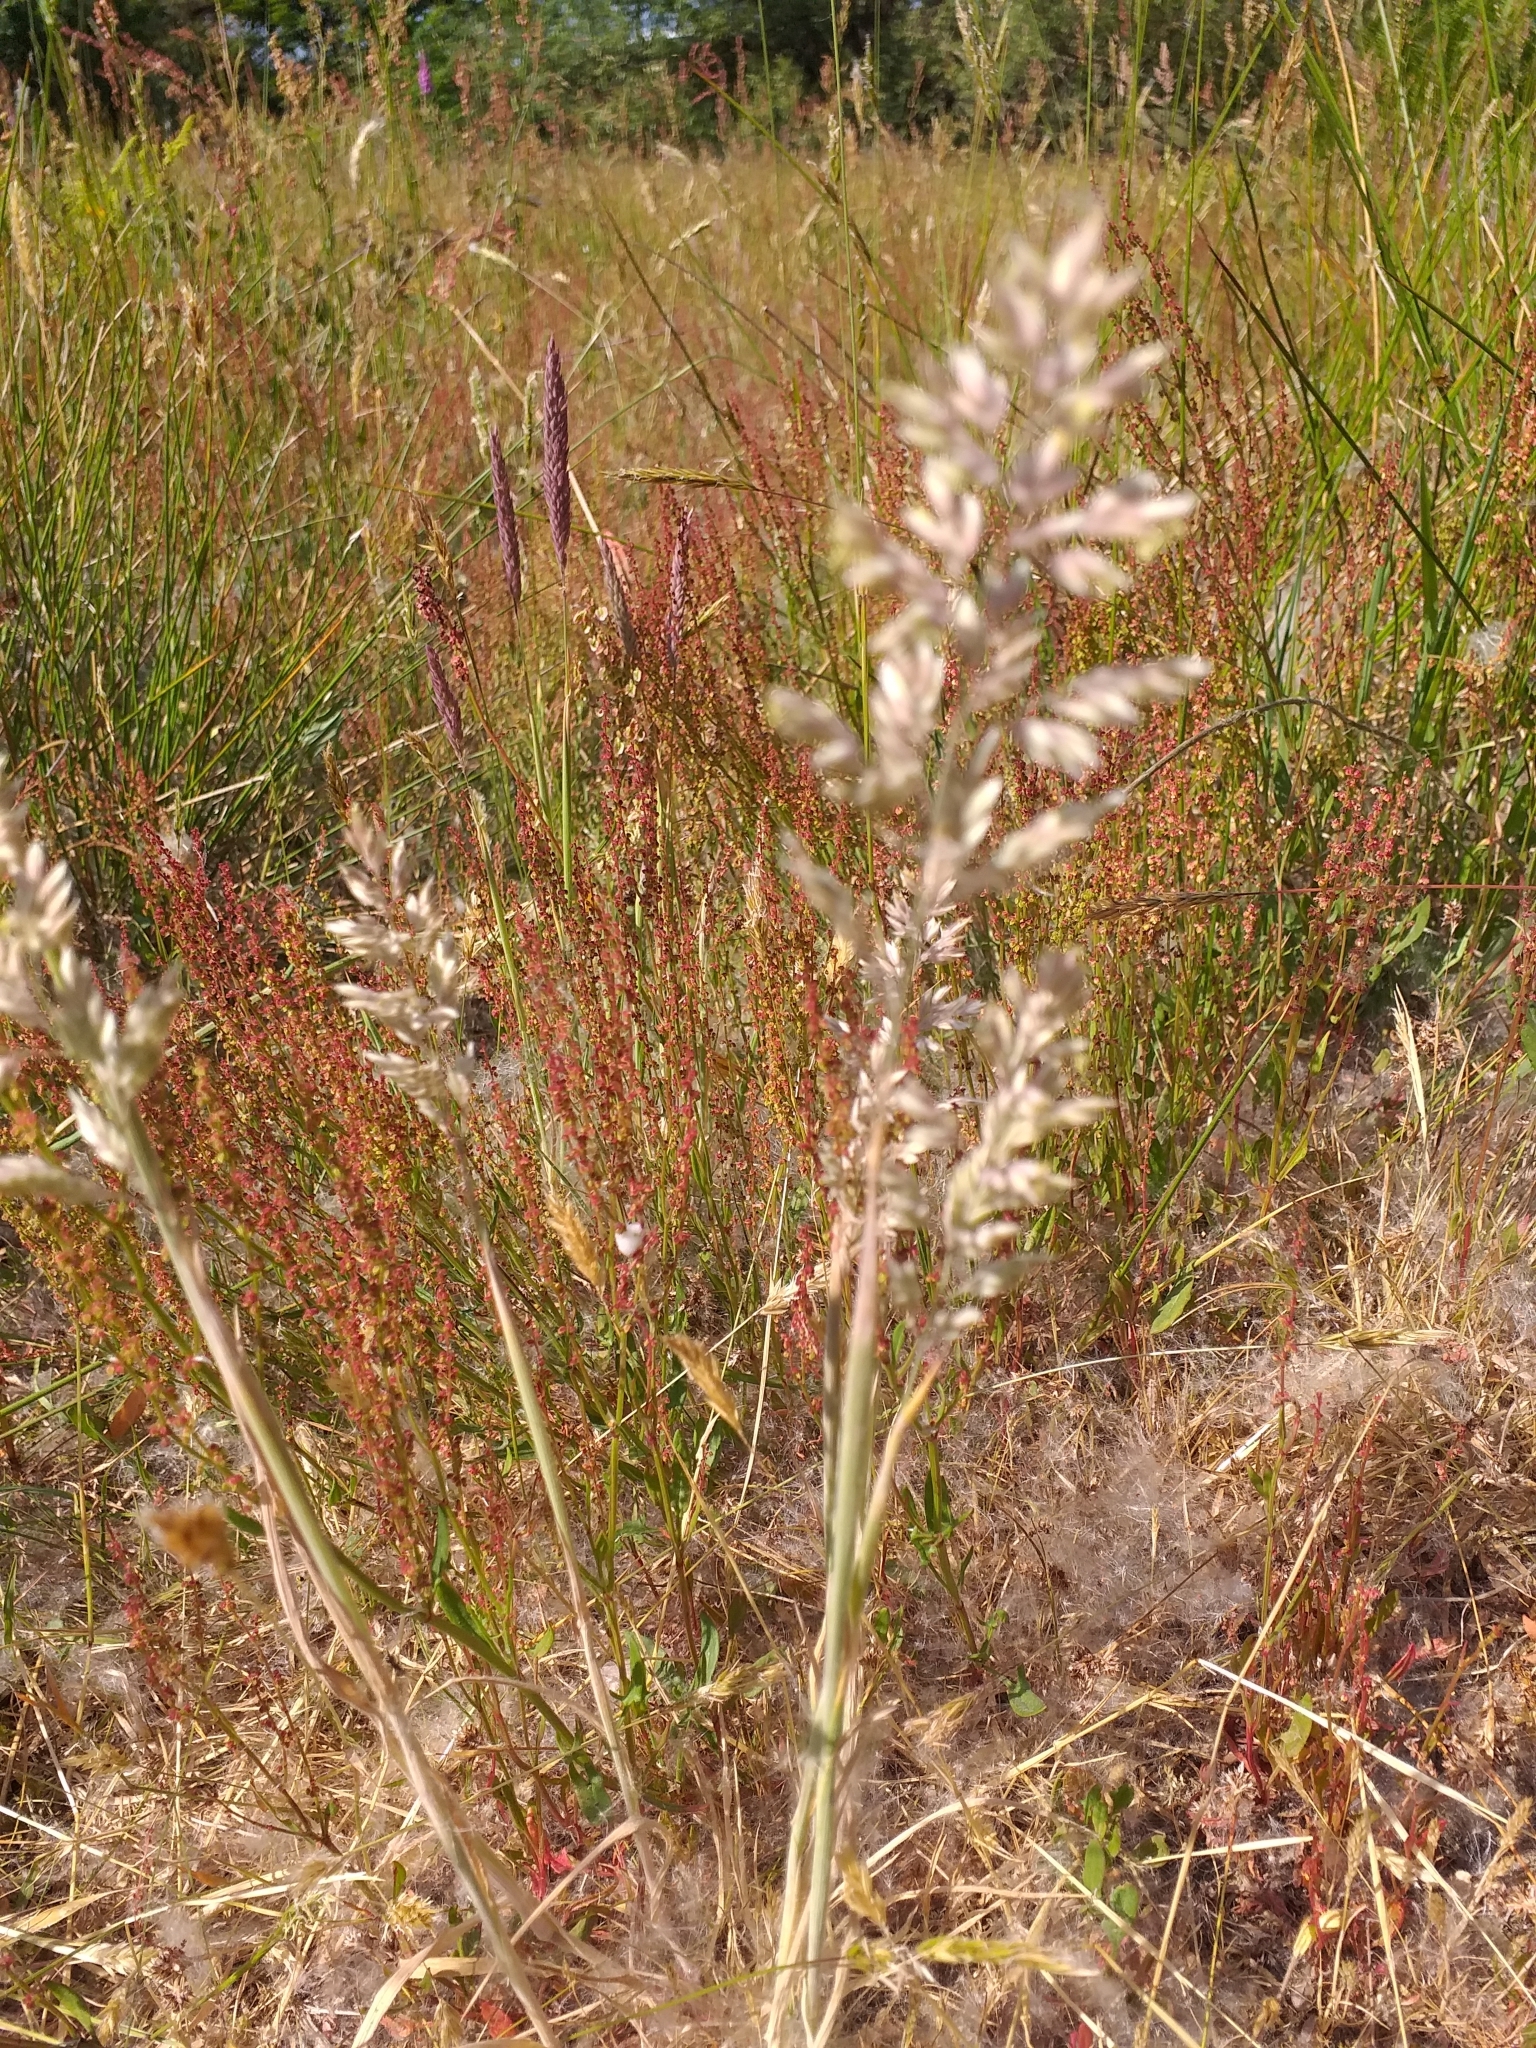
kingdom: Plantae
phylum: Tracheophyta
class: Liliopsida
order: Poales
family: Poaceae
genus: Holcus
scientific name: Holcus lanatus
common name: Yorkshire-fog
